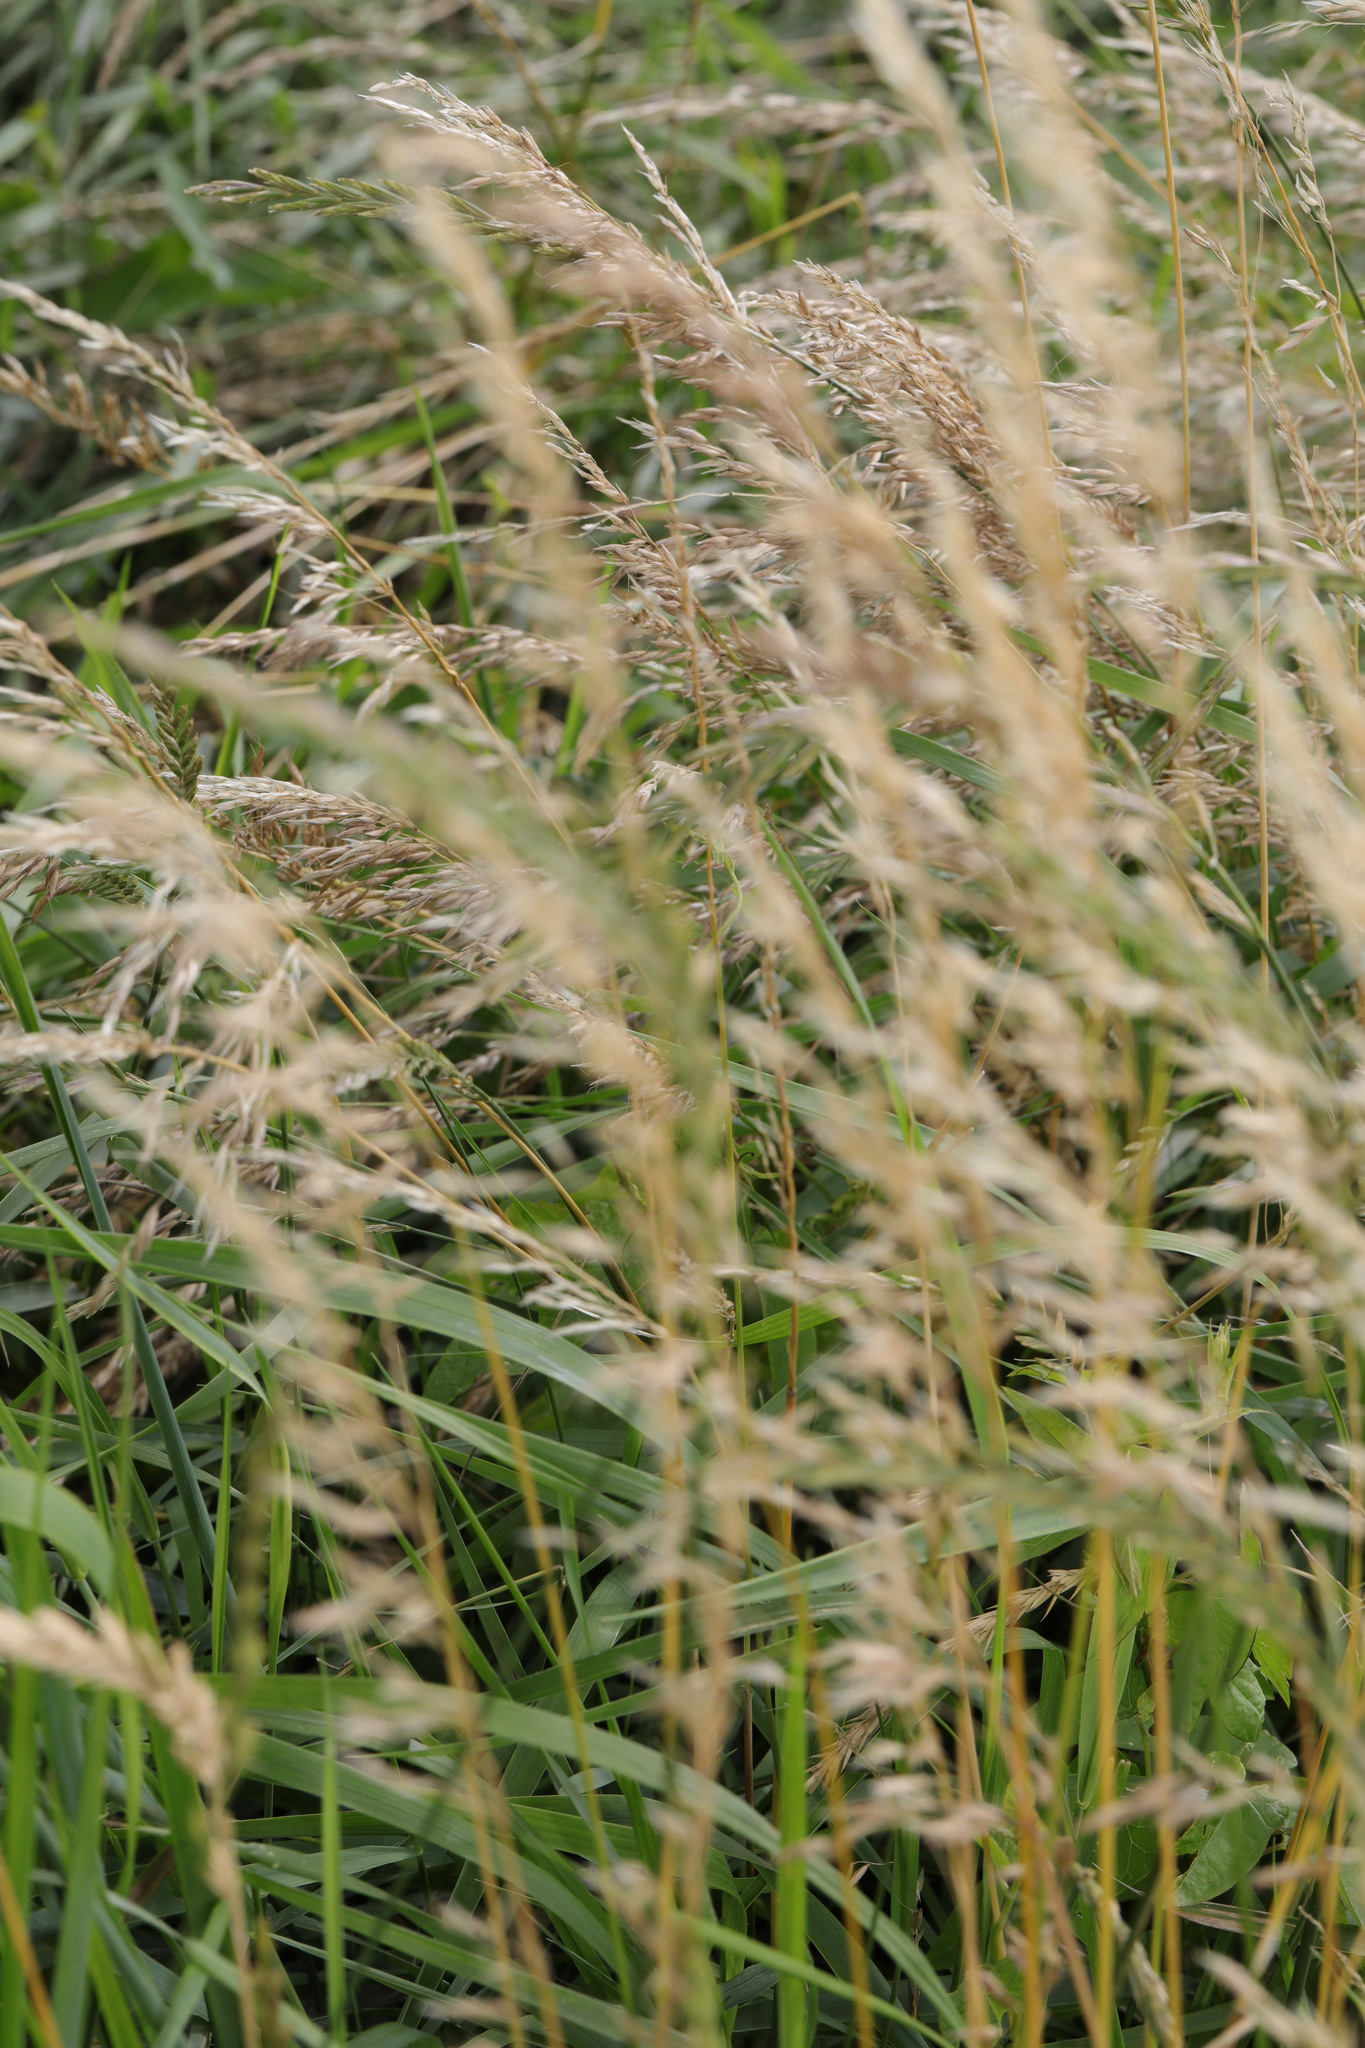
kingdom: Plantae
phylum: Tracheophyta
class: Liliopsida
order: Poales
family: Poaceae
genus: Arrhenatherum
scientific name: Arrhenatherum elatius
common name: Tall oatgrass
